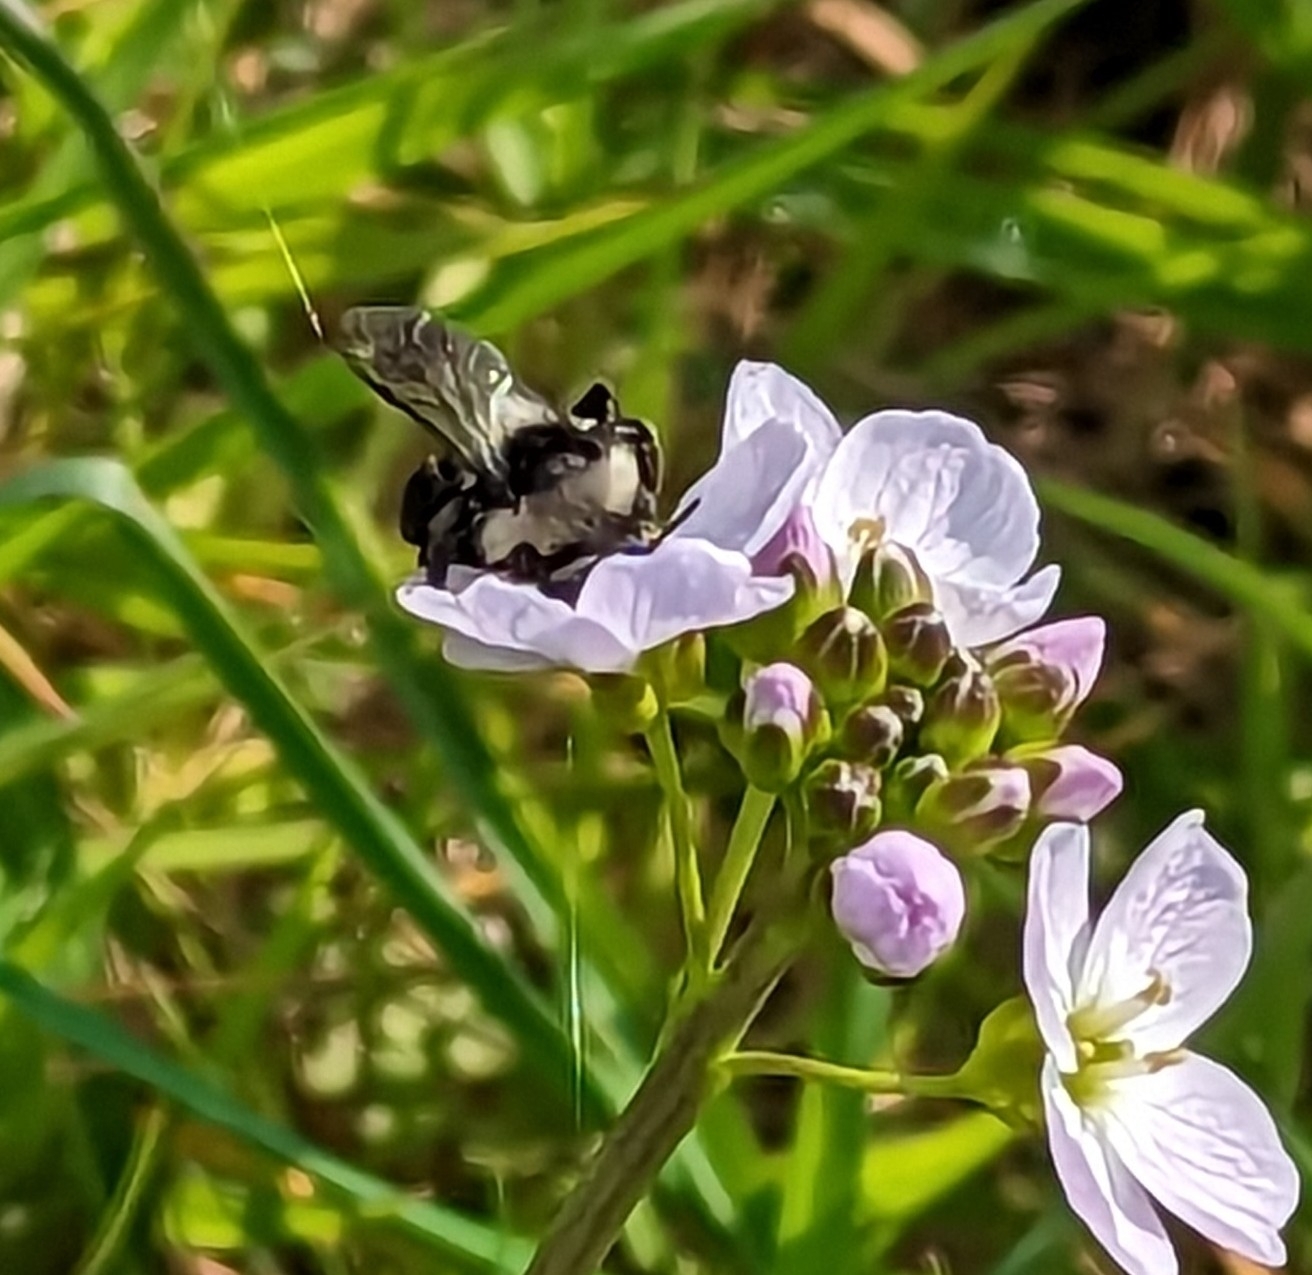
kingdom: Animalia
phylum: Arthropoda
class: Insecta
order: Hymenoptera
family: Andrenidae
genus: Andrena
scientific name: Andrena cineraria
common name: Ashy mining bee
